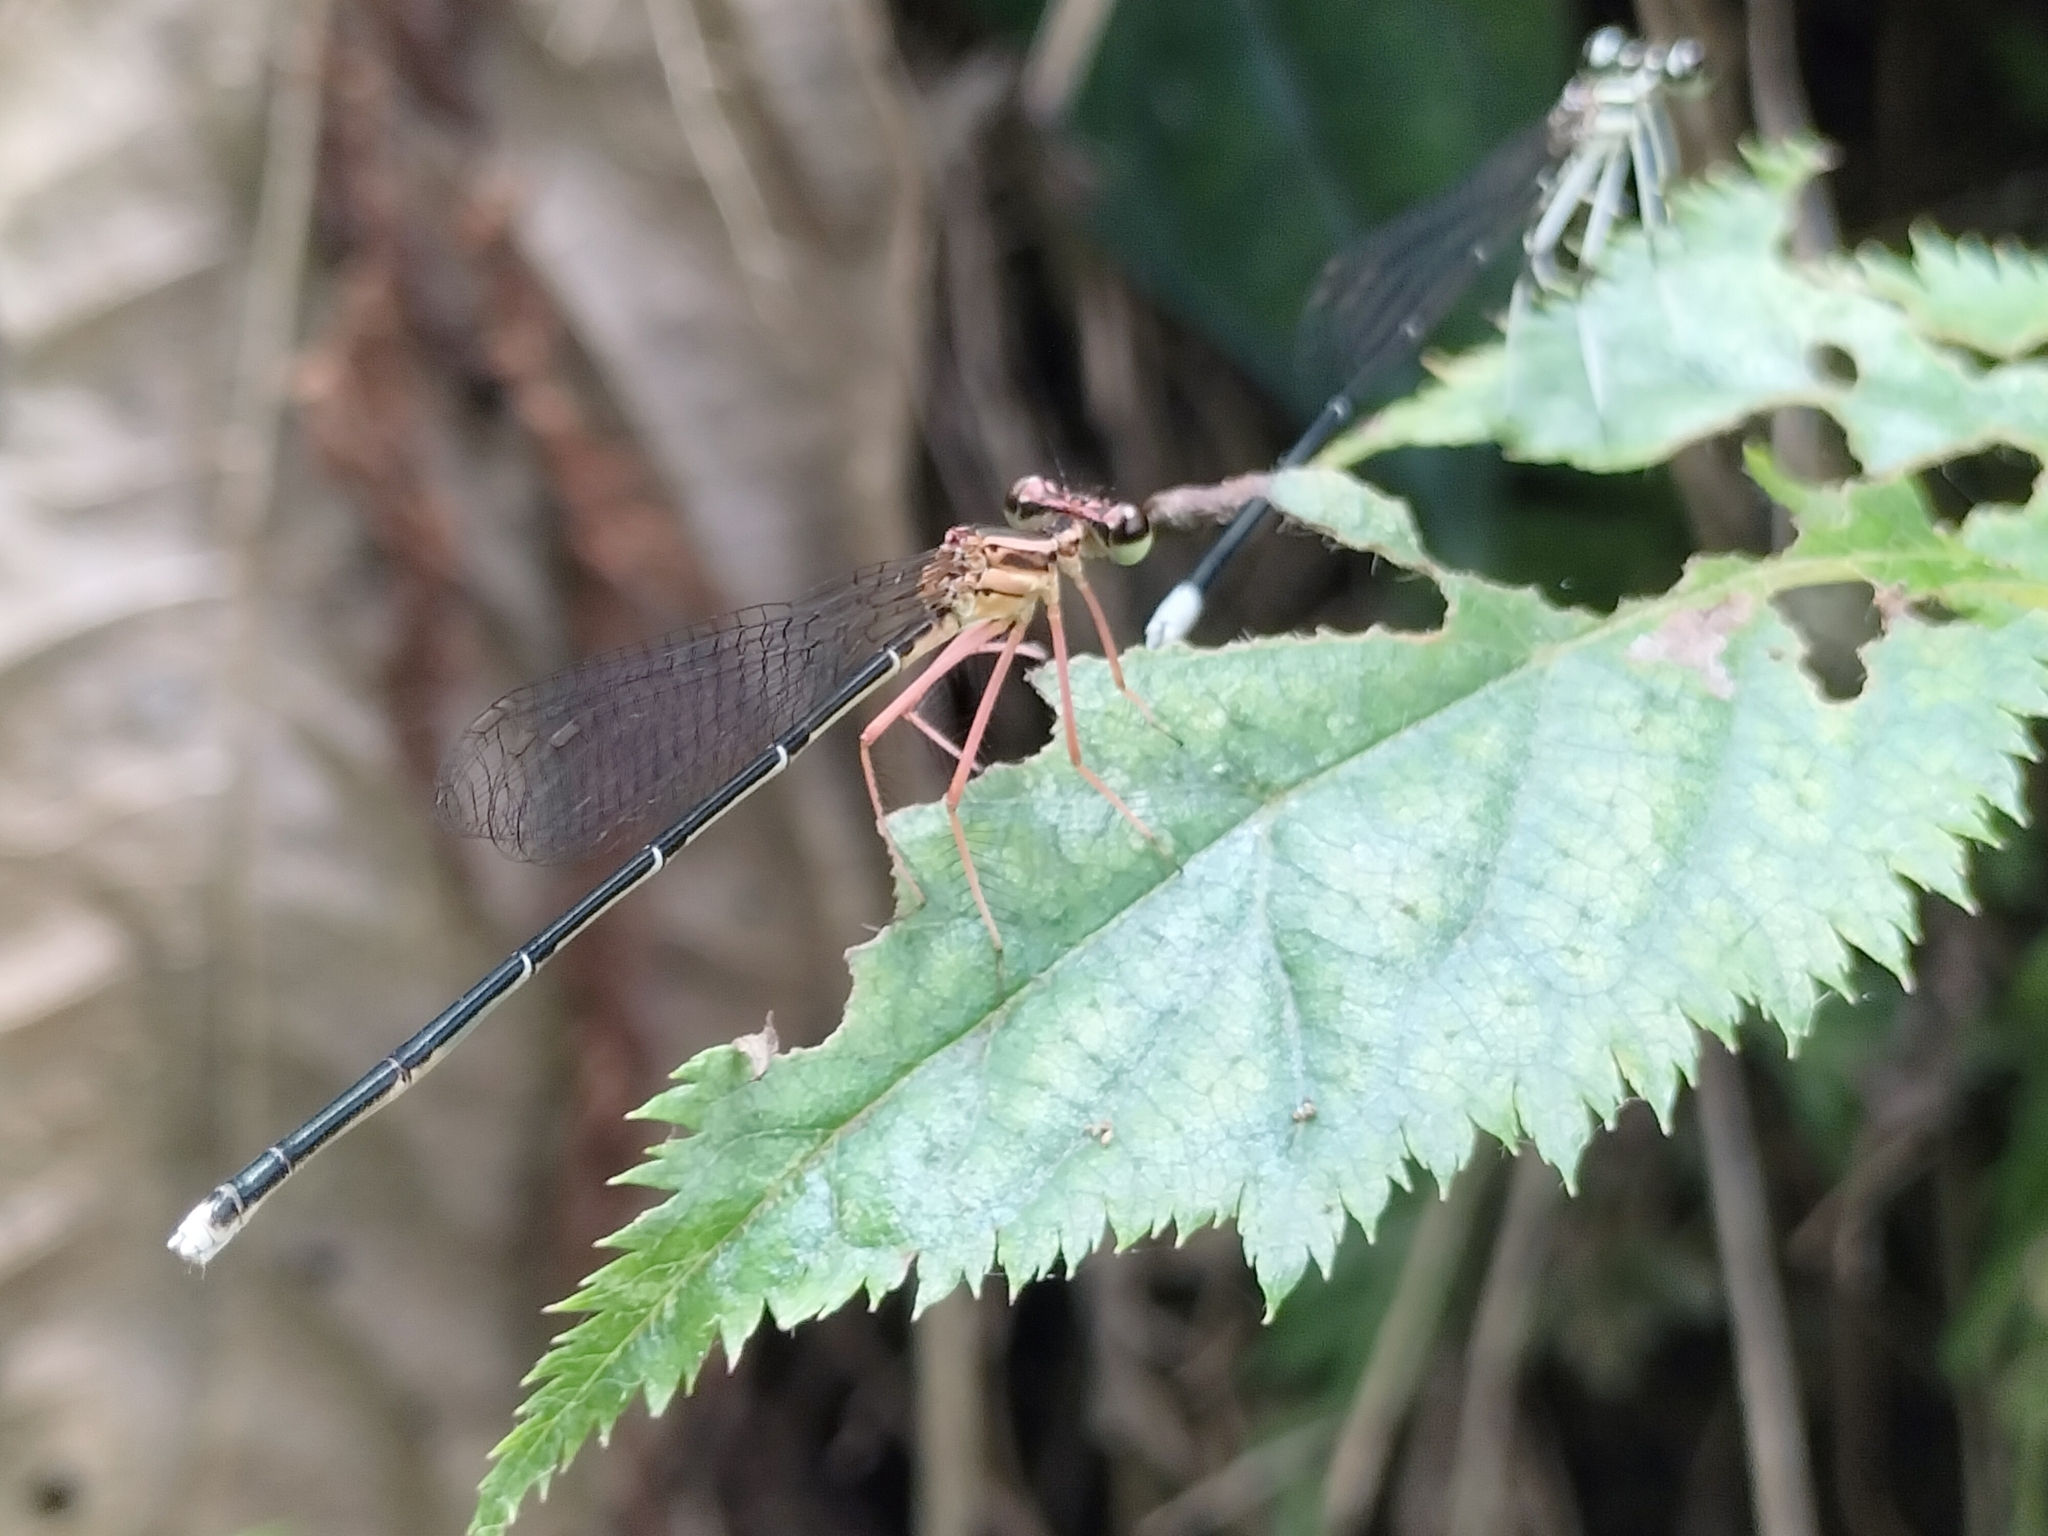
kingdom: Animalia
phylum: Arthropoda
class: Insecta
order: Odonata
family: Platycnemididae
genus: Pseudocopera
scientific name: Pseudocopera ciliata
